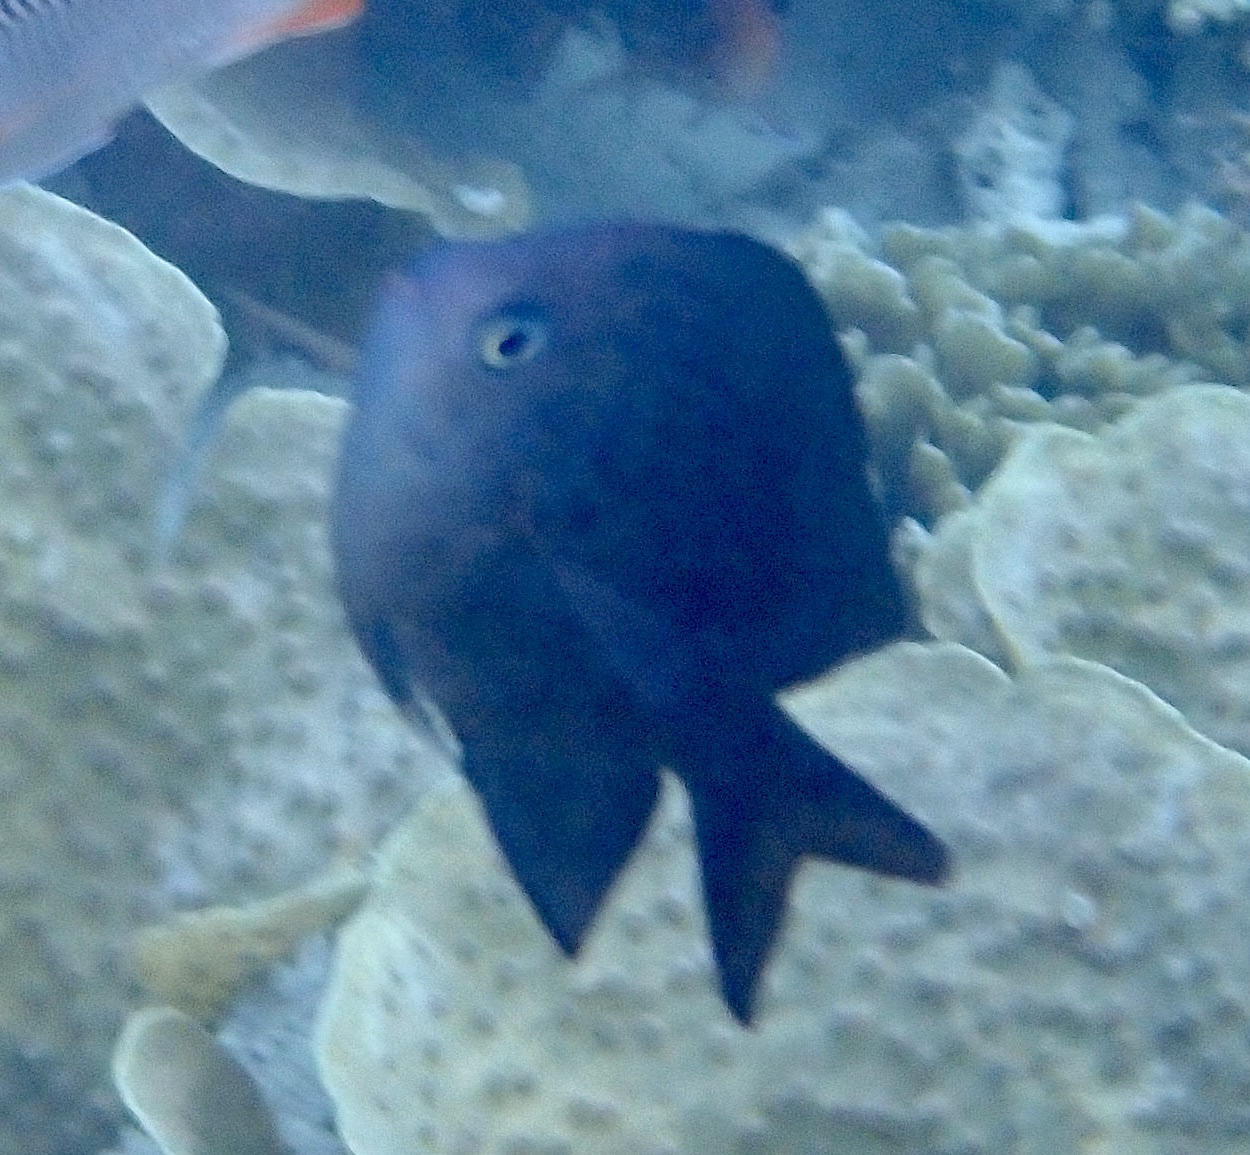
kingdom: Animalia
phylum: Chordata
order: Perciformes
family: Pomacentridae
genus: Acanthochromis
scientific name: Acanthochromis polyacanthus
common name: Spiny chromis
